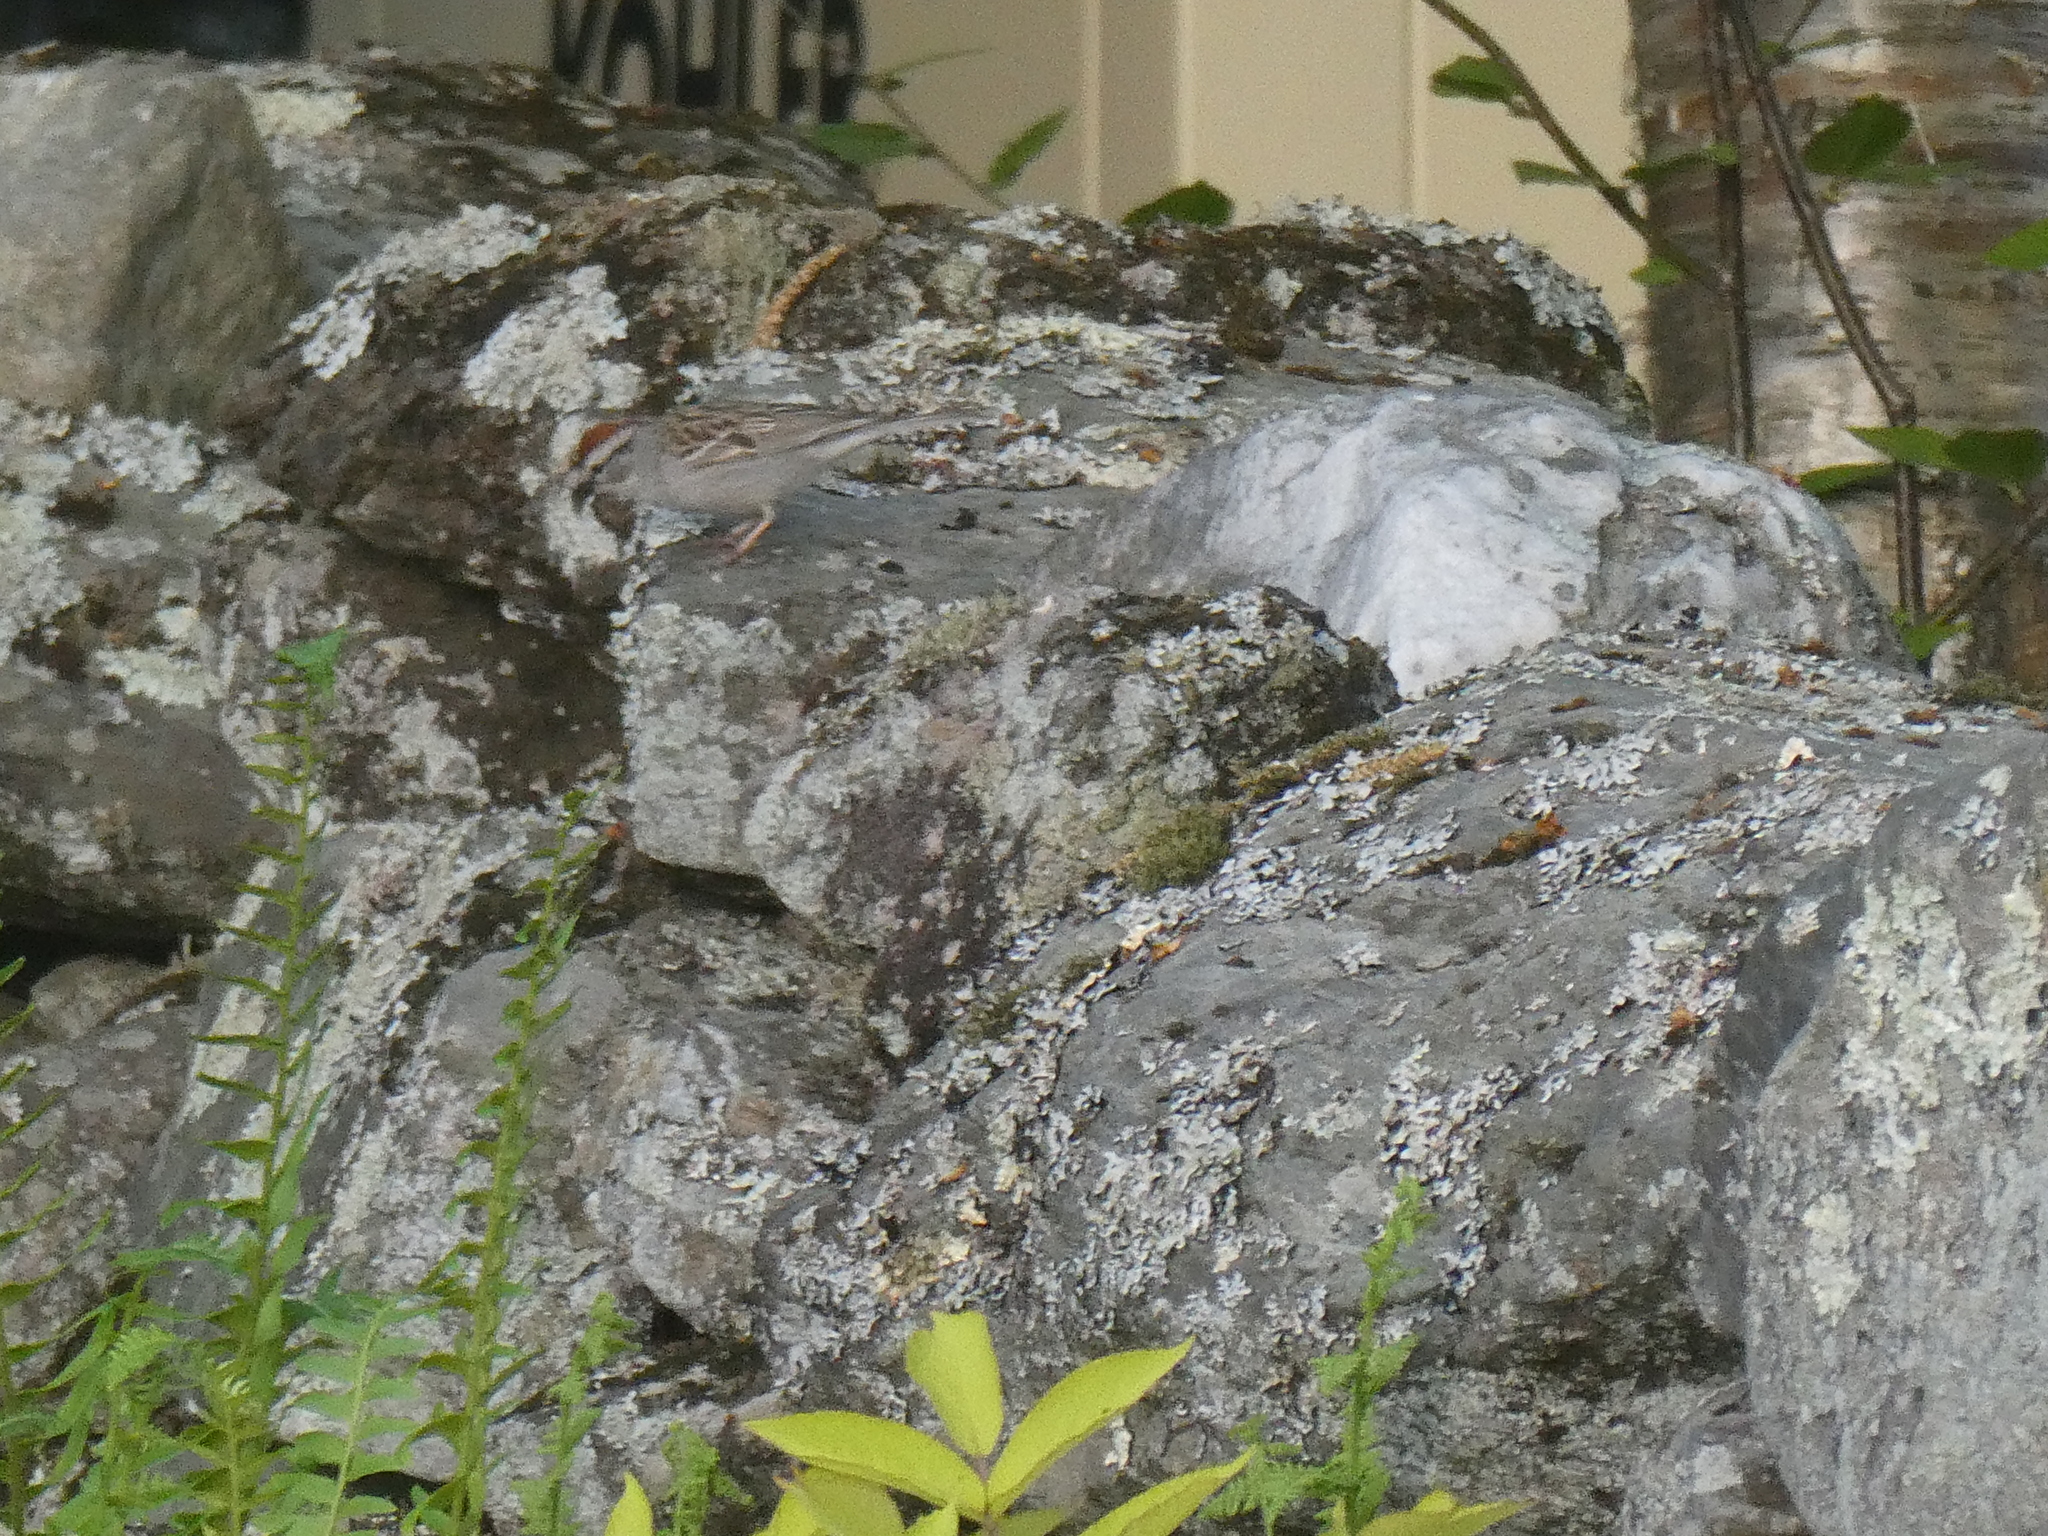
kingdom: Animalia
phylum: Chordata
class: Aves
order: Passeriformes
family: Passerellidae
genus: Spizella
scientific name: Spizella passerina
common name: Chipping sparrow
